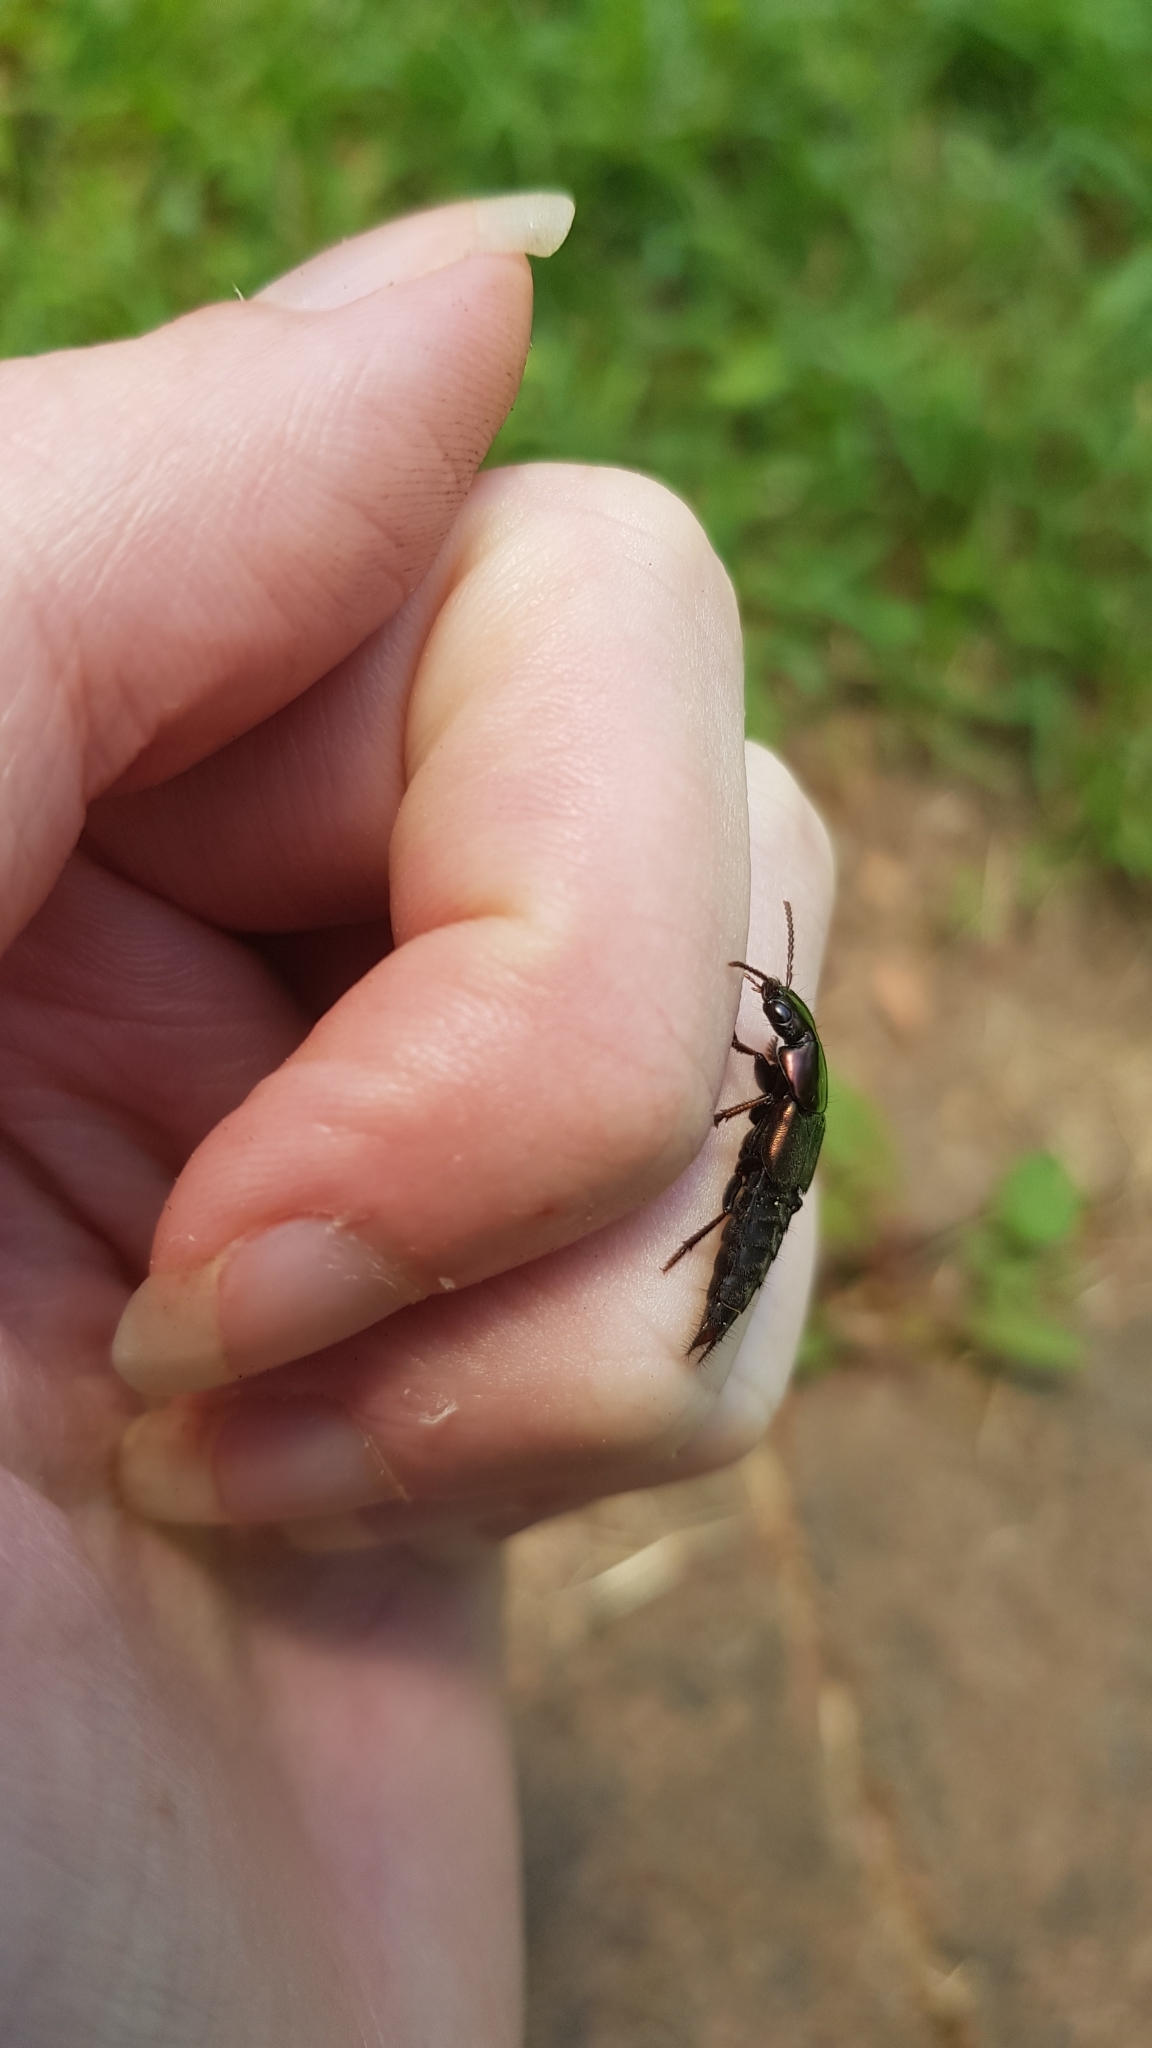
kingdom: Animalia
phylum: Arthropoda
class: Insecta
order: Coleoptera
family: Staphylinidae
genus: Antimerus
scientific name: Antimerus punctipennis
